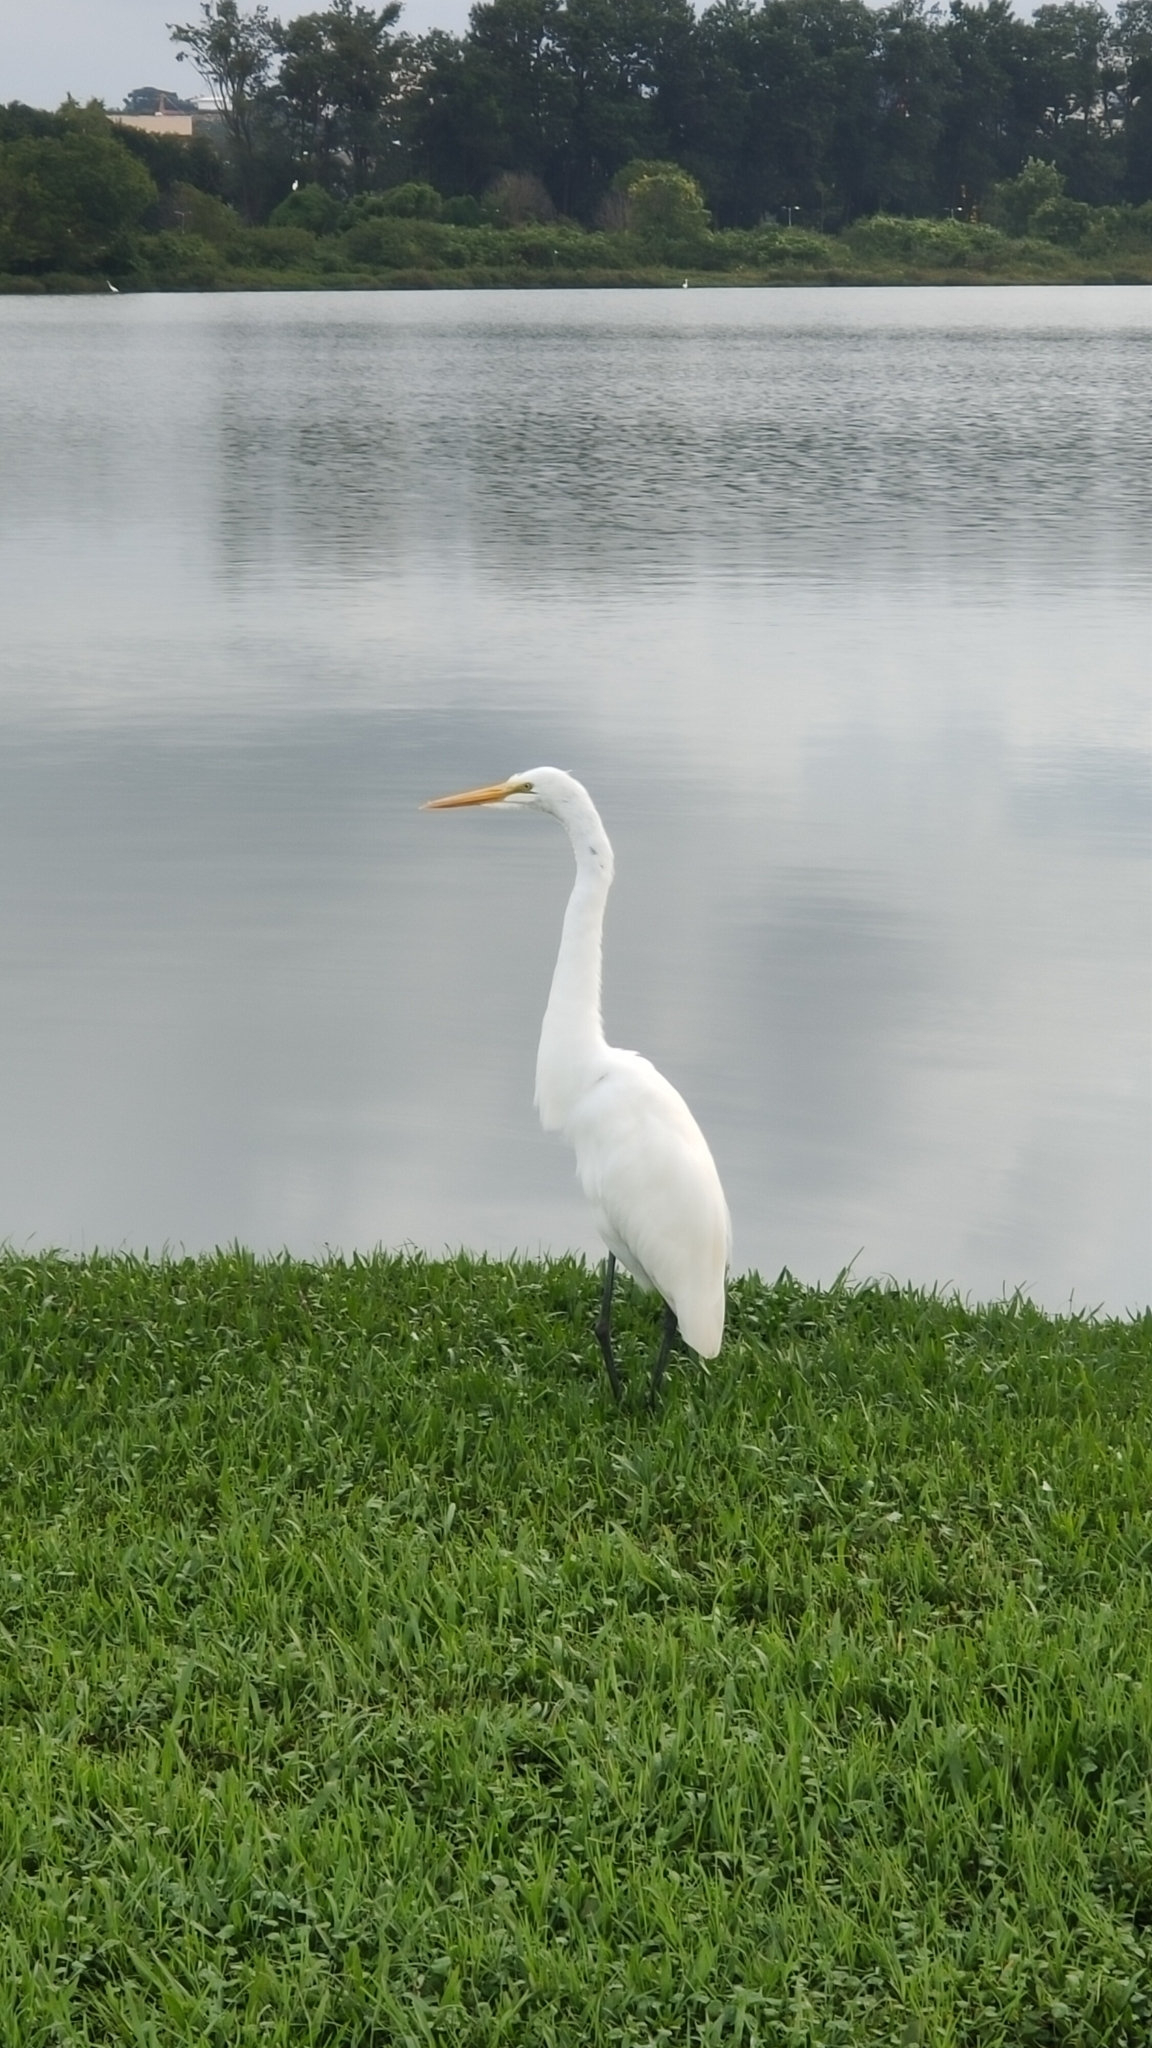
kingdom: Animalia
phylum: Chordata
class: Aves
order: Pelecaniformes
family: Ardeidae
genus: Ardea
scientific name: Ardea alba
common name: Great egret
